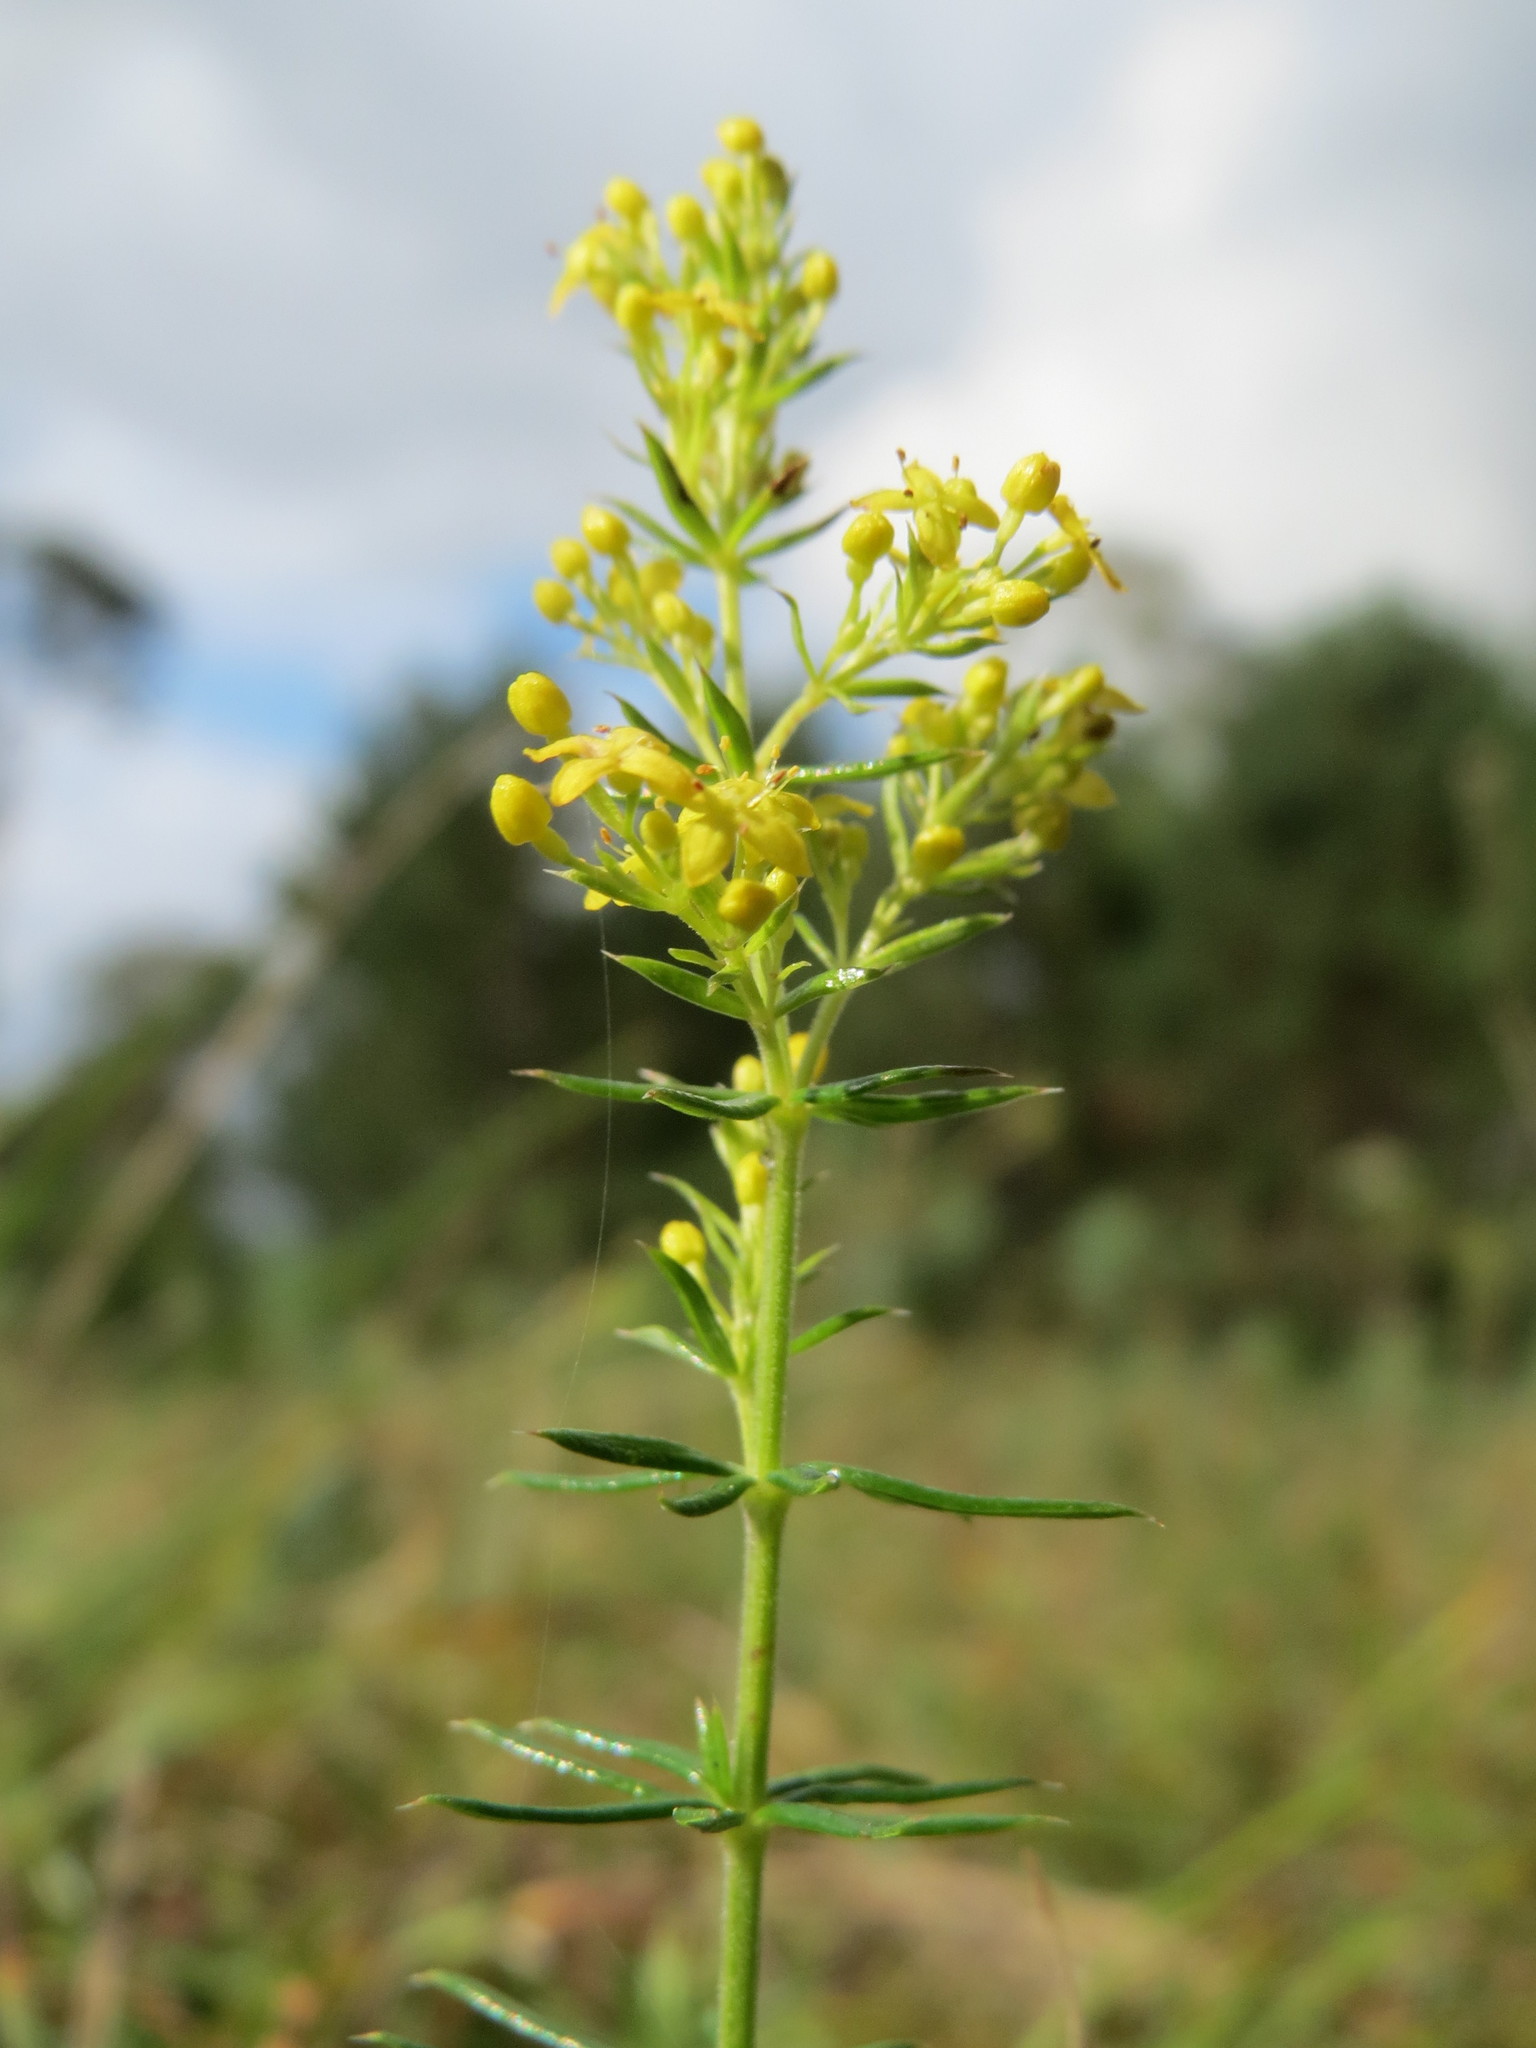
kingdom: Plantae
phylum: Tracheophyta
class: Magnoliopsida
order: Gentianales
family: Rubiaceae
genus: Galium
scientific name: Galium verum
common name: Lady's bedstraw
